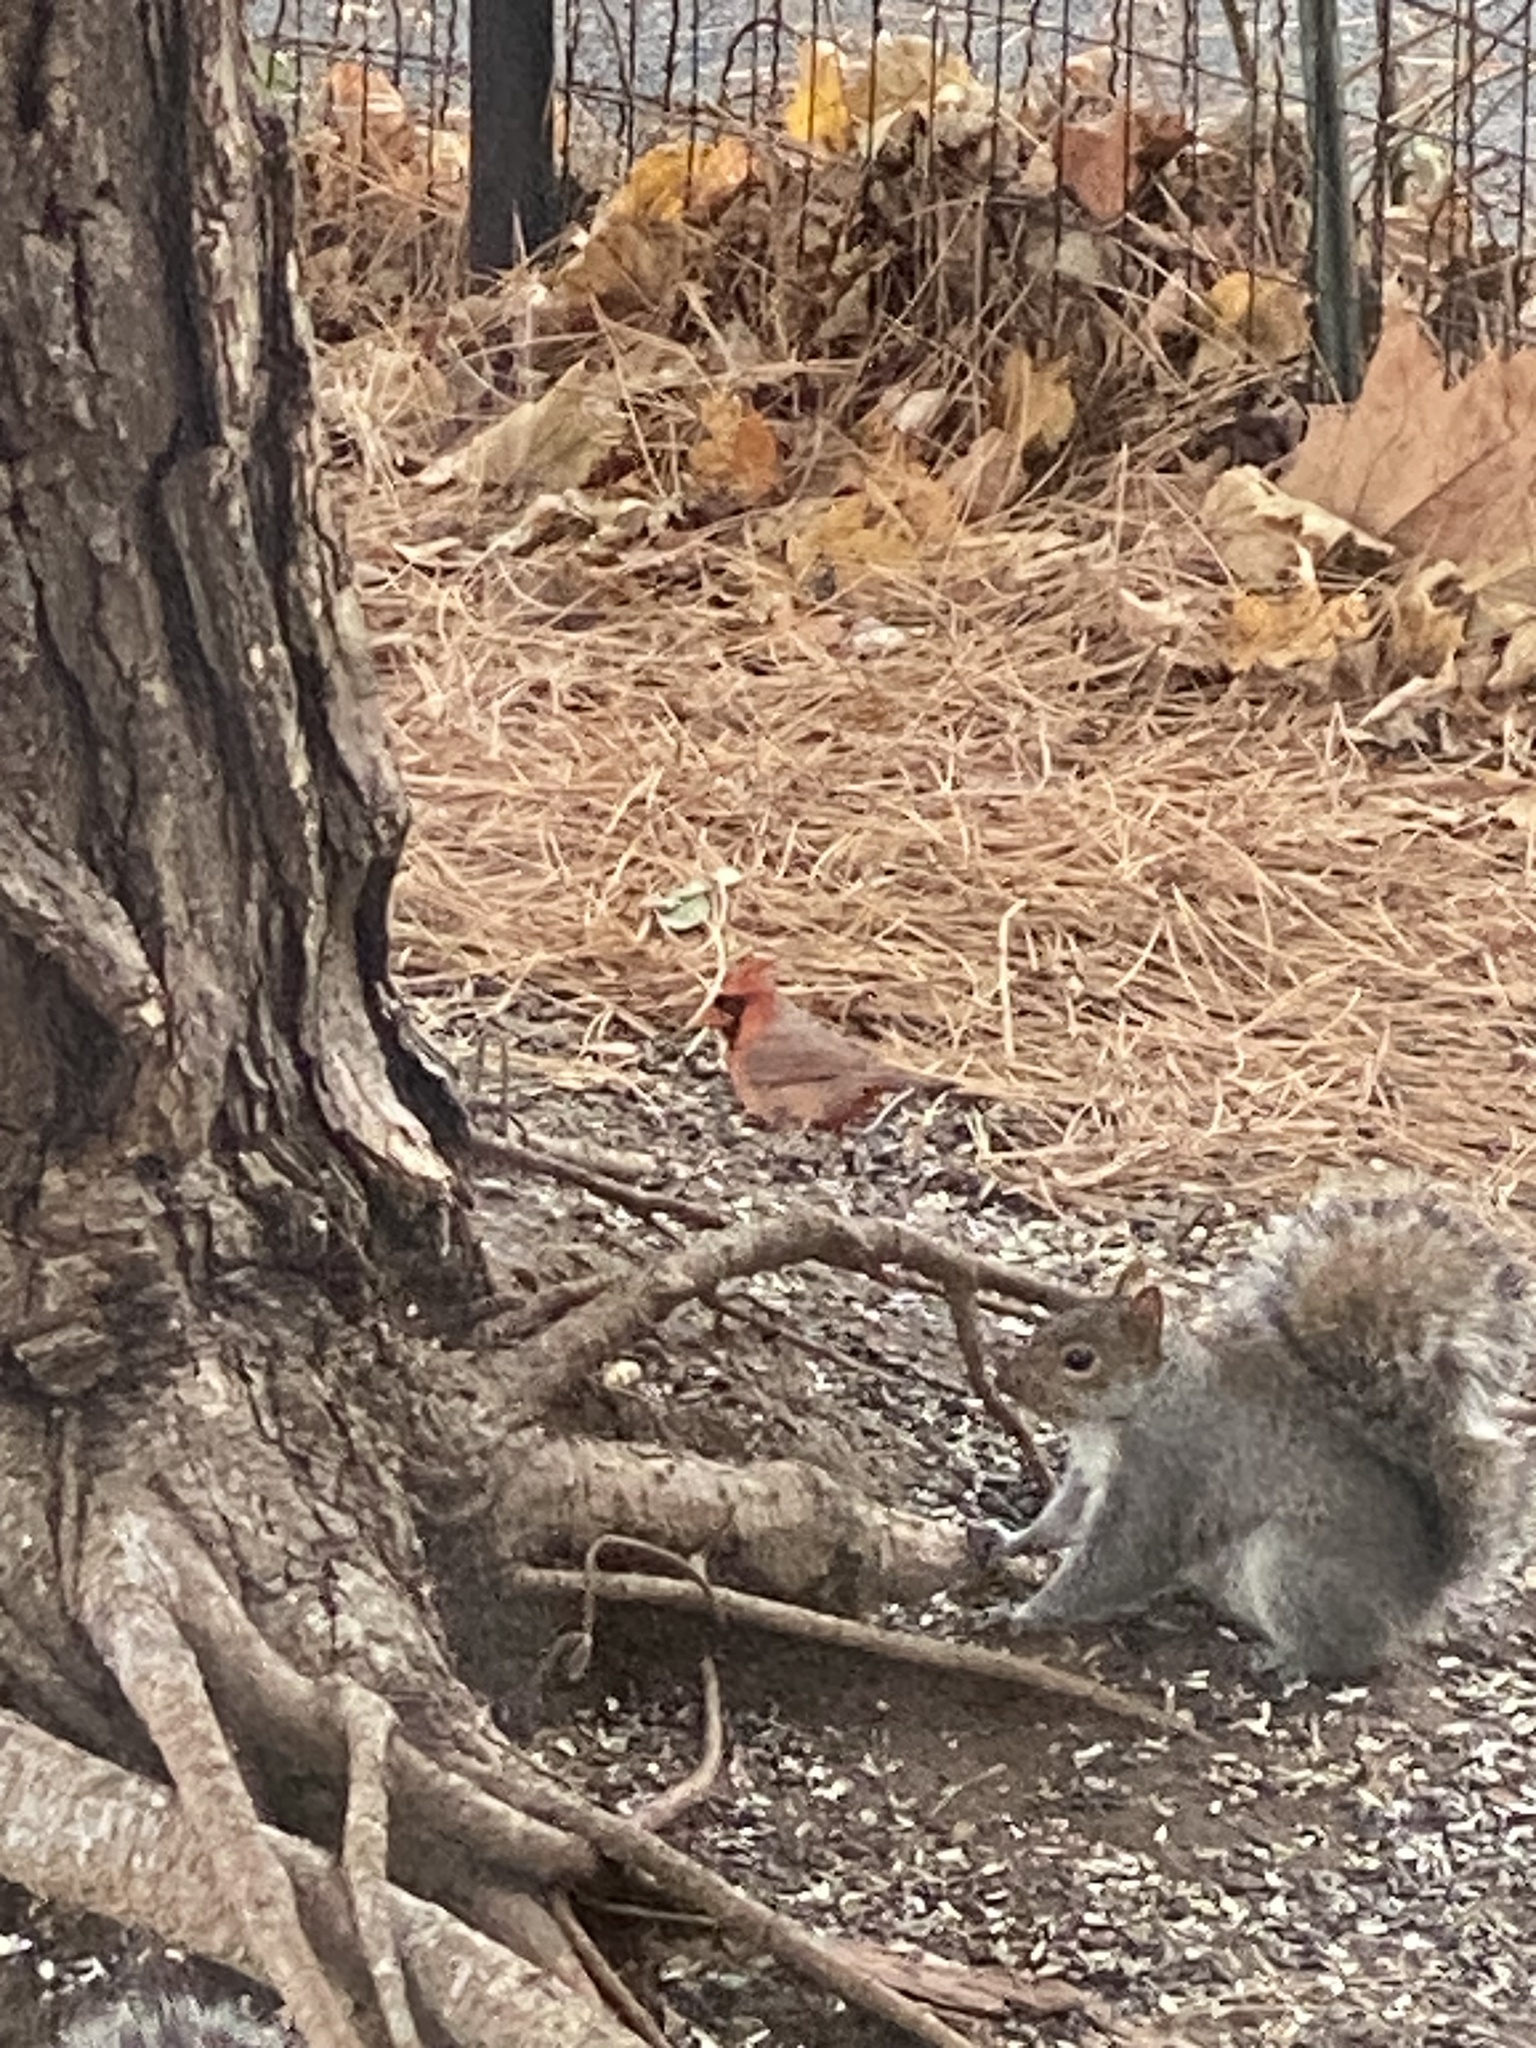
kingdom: Animalia
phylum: Chordata
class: Mammalia
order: Rodentia
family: Sciuridae
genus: Sciurus
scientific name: Sciurus carolinensis
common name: Eastern gray squirrel
